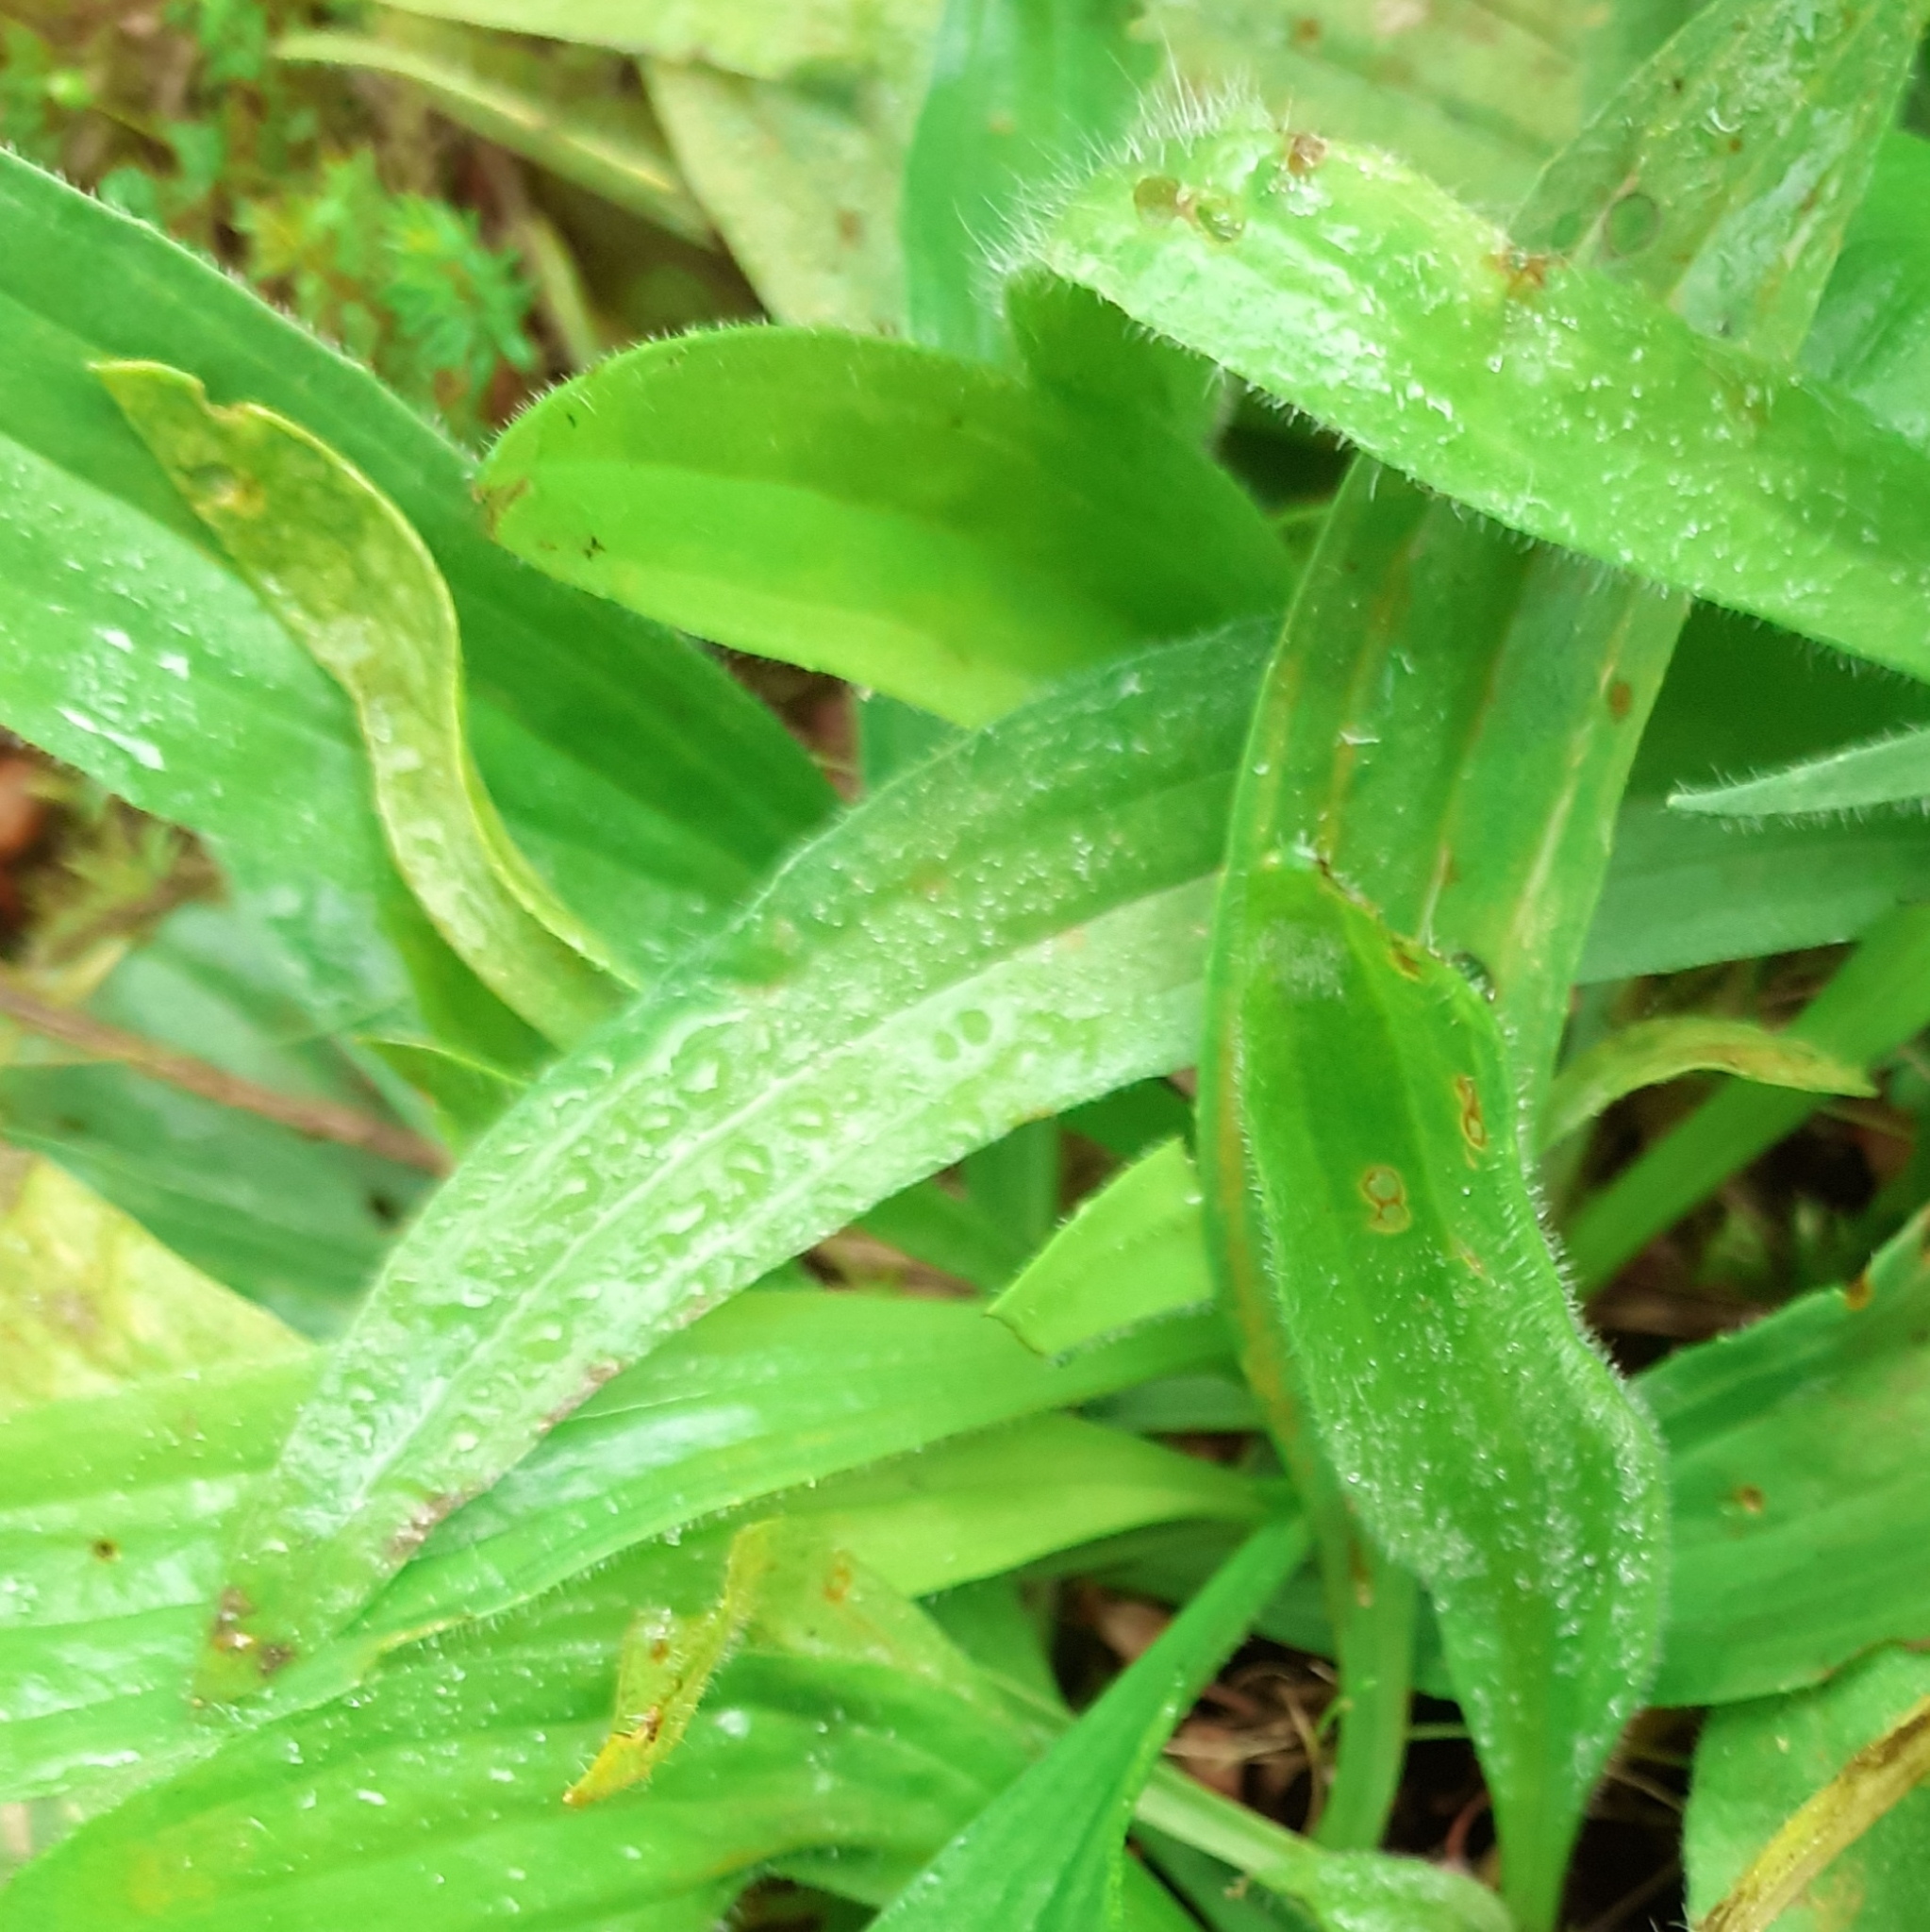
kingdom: Plantae
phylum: Tracheophyta
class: Magnoliopsida
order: Lamiales
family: Plantaginaceae
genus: Plantago
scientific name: Plantago lanceolata
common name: Ribwort plantain
